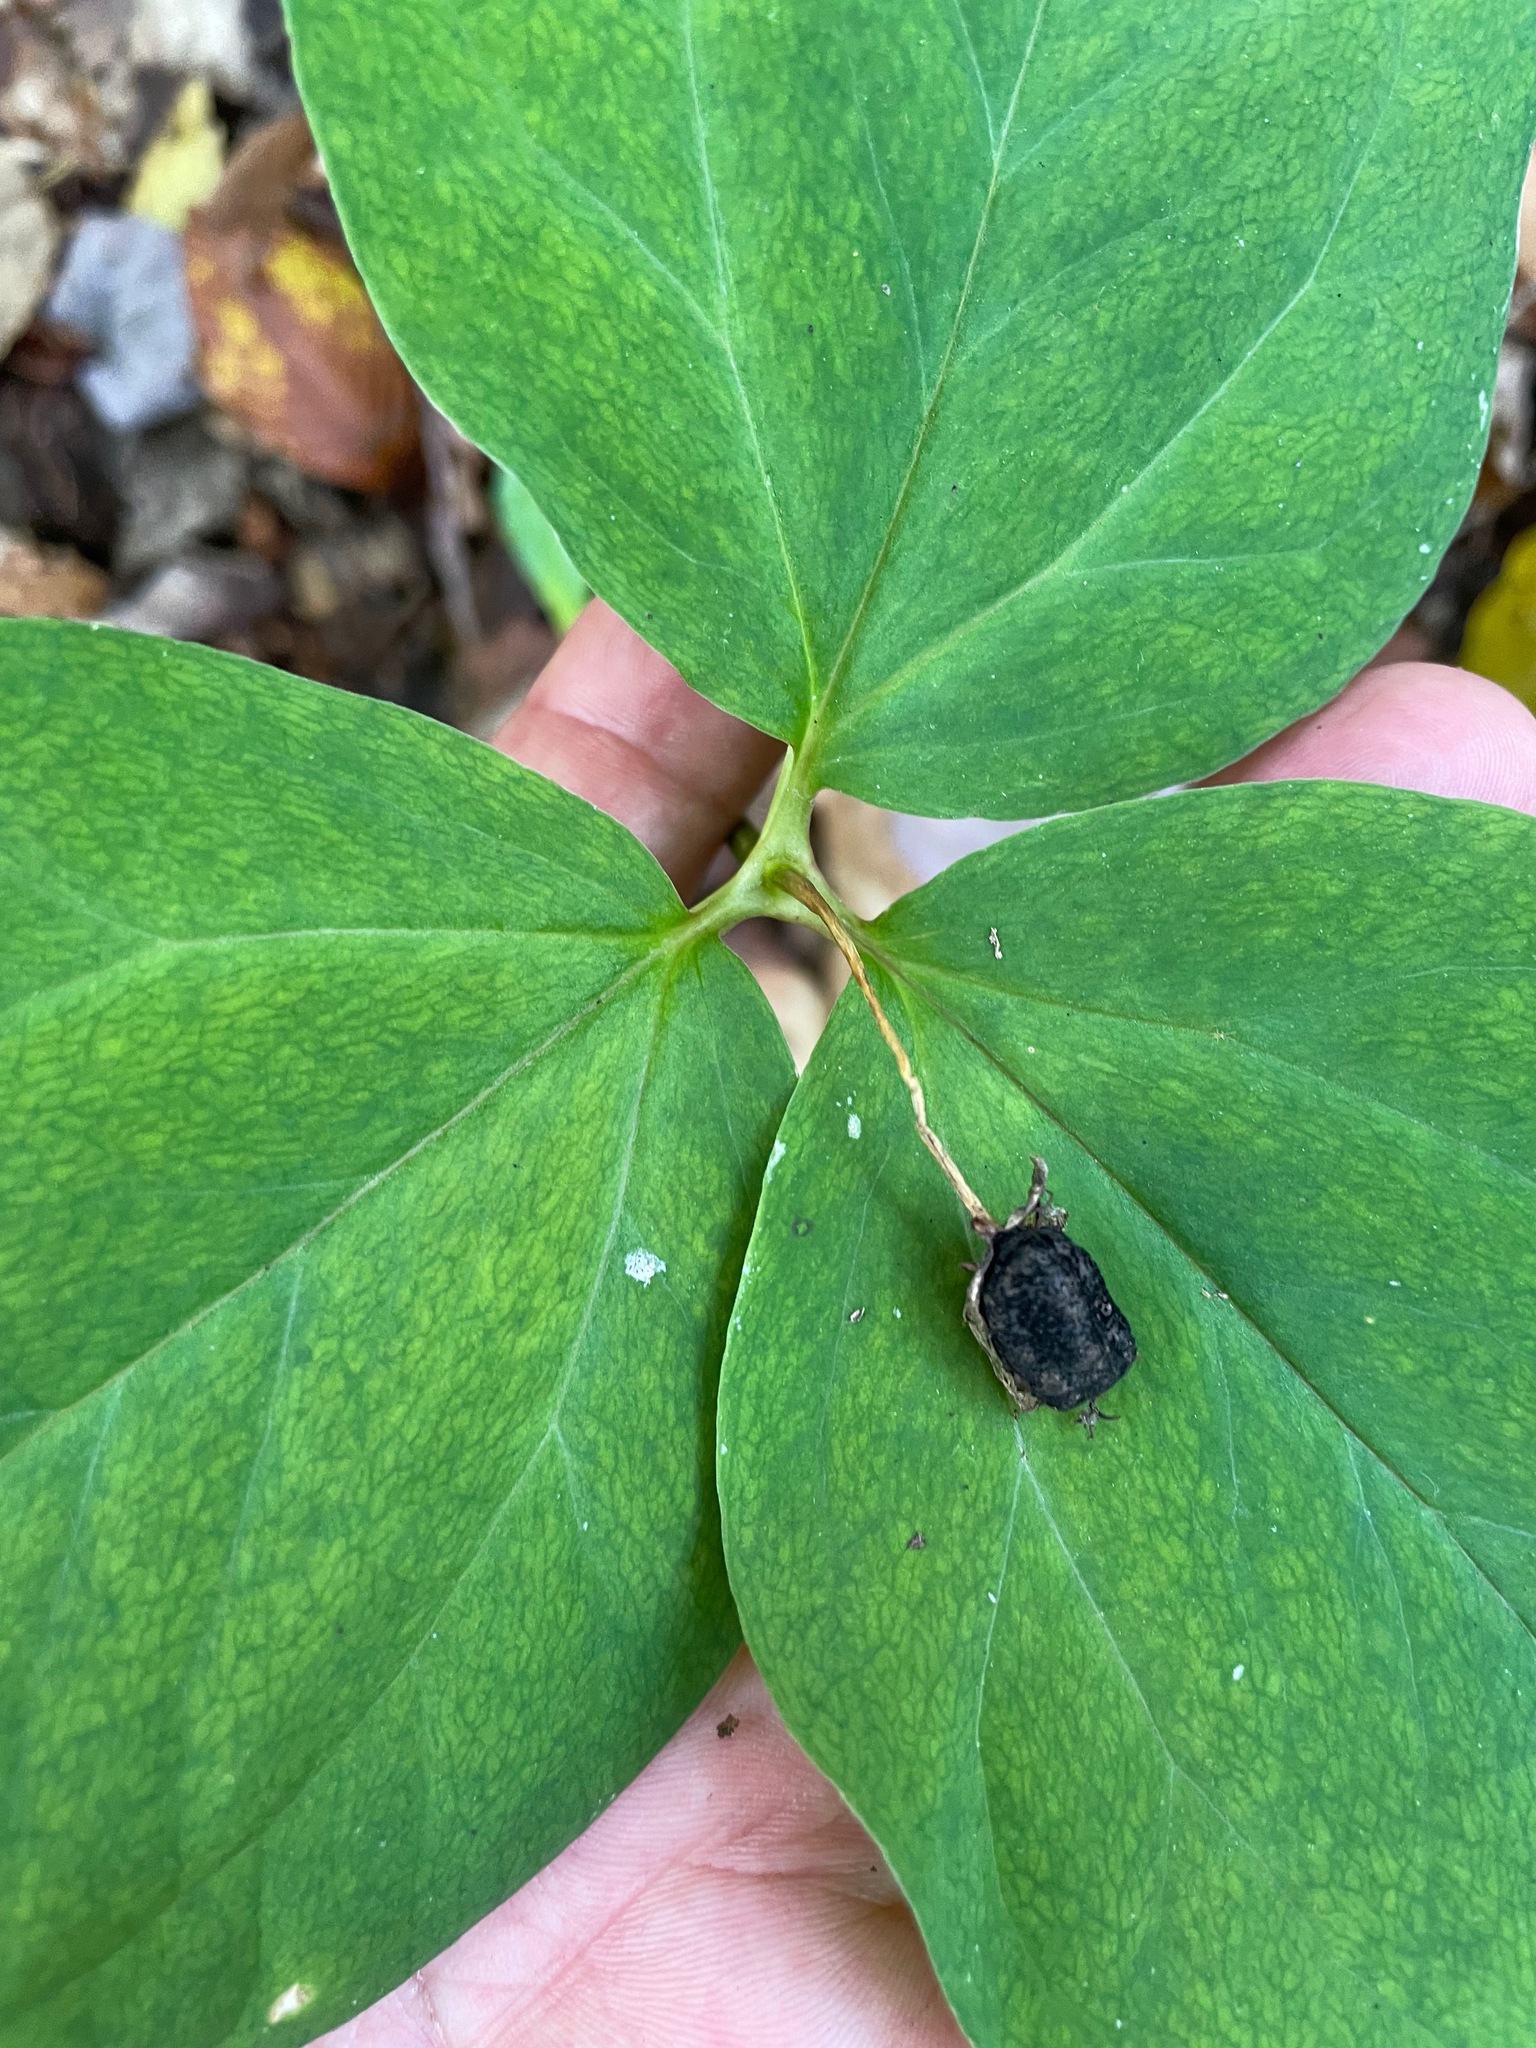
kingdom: Plantae
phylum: Tracheophyta
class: Liliopsida
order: Liliales
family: Melanthiaceae
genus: Trillium
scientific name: Trillium undulatum
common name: Paint trillium
